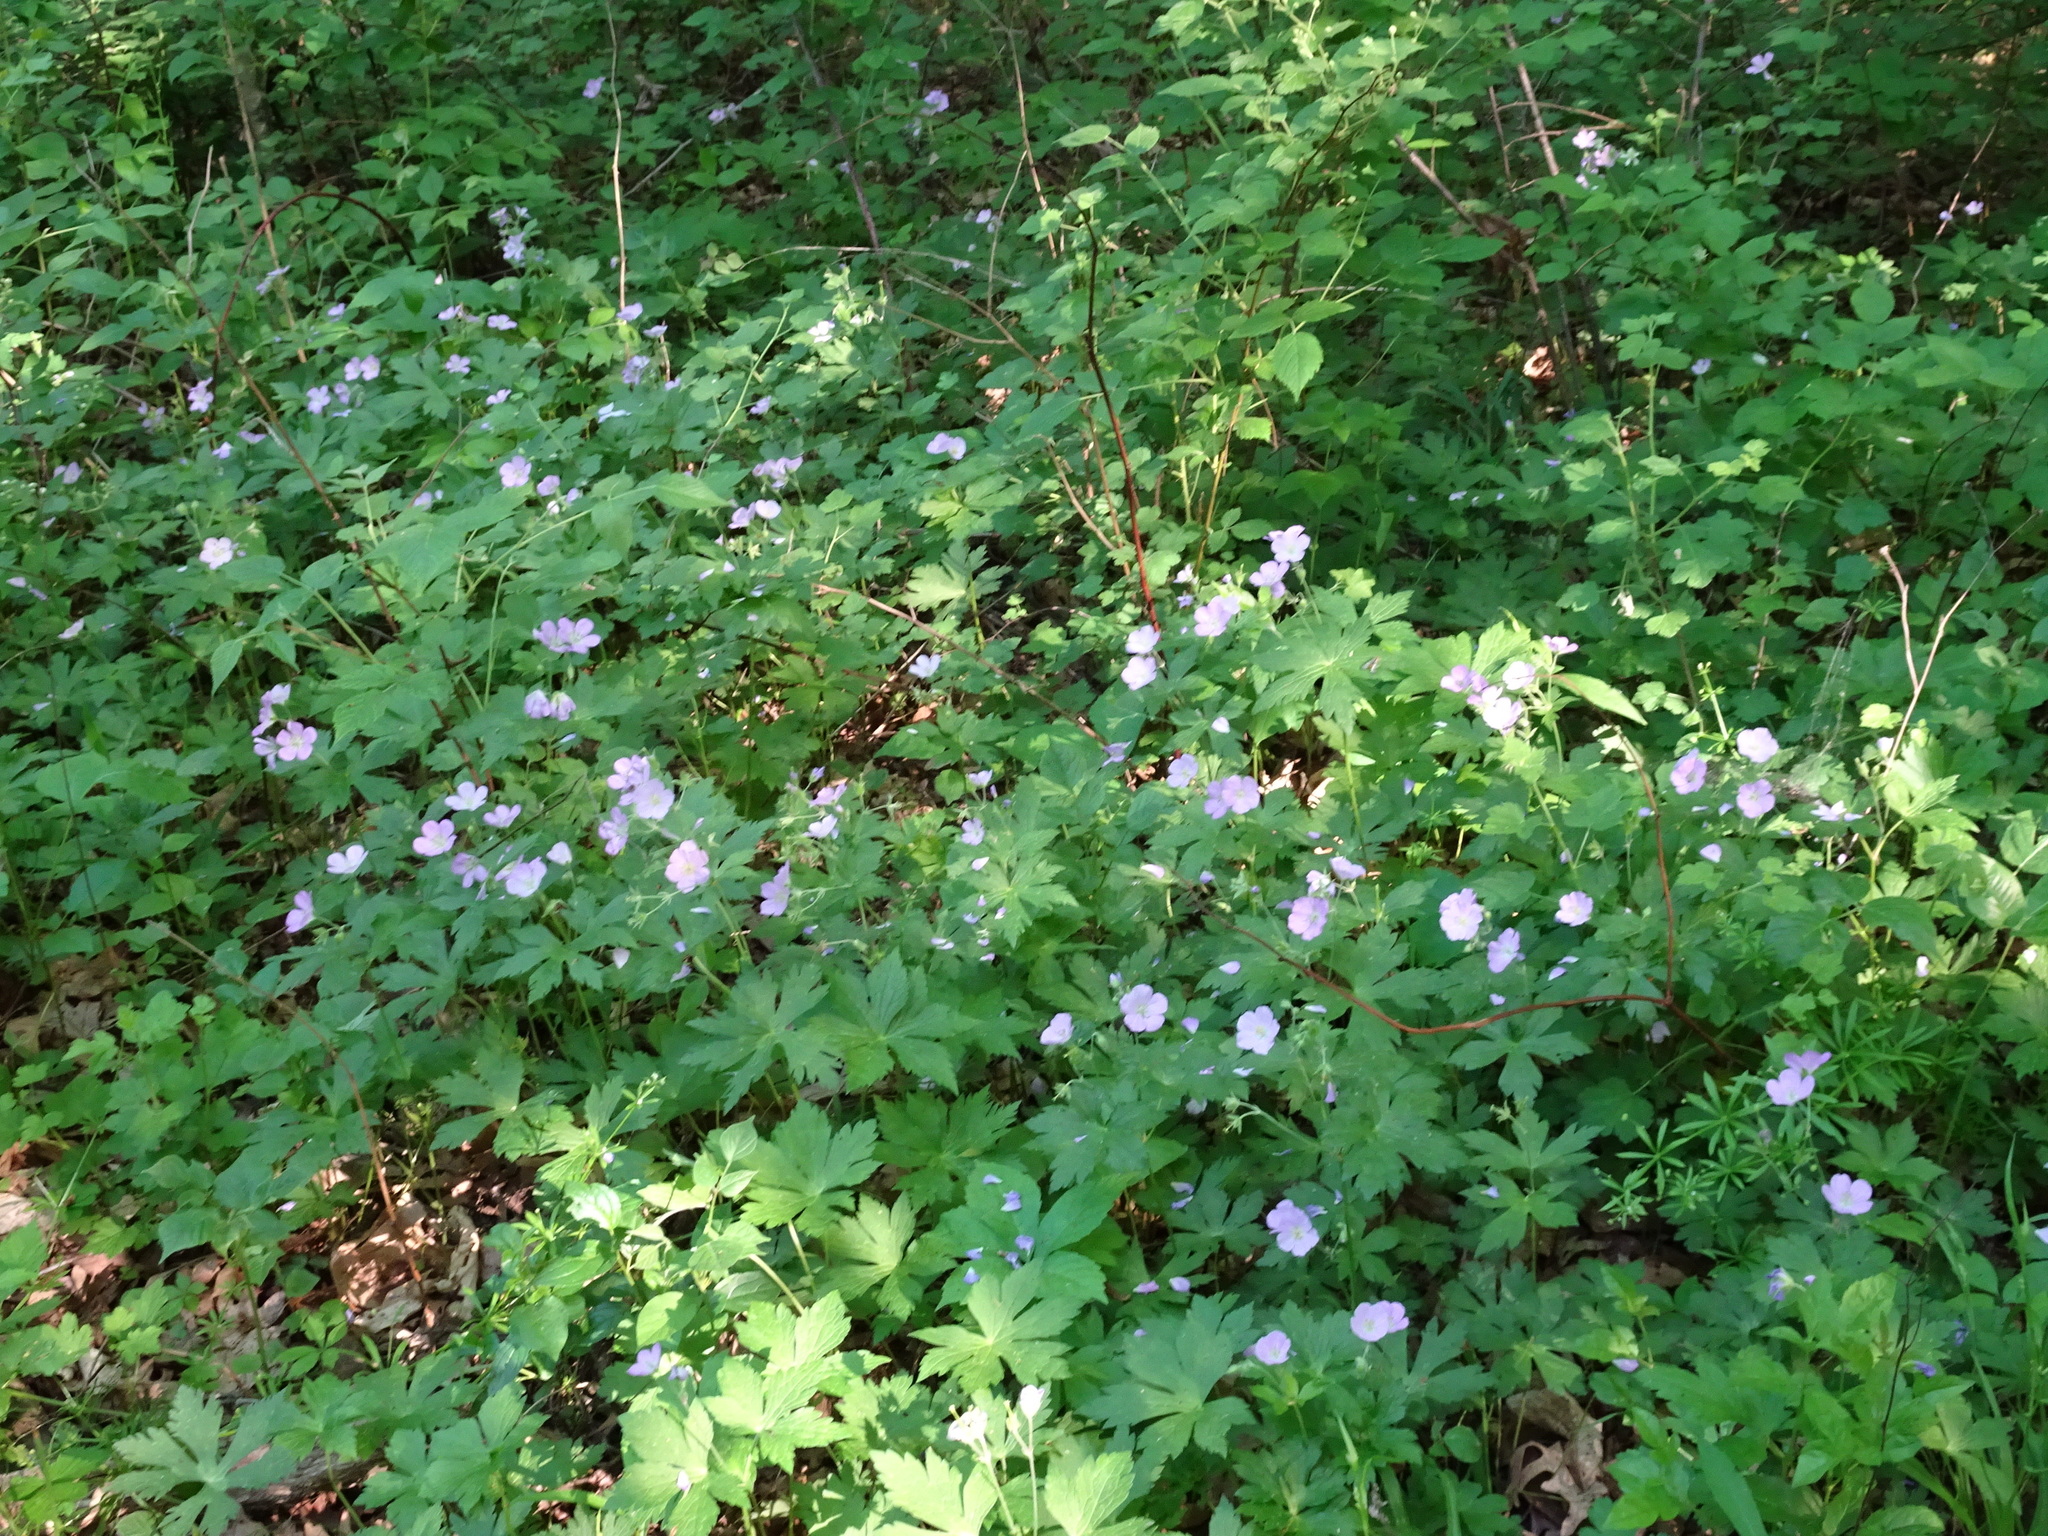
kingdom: Plantae
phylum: Tracheophyta
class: Magnoliopsida
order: Geraniales
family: Geraniaceae
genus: Geranium
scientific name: Geranium maculatum
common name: Spotted geranium
